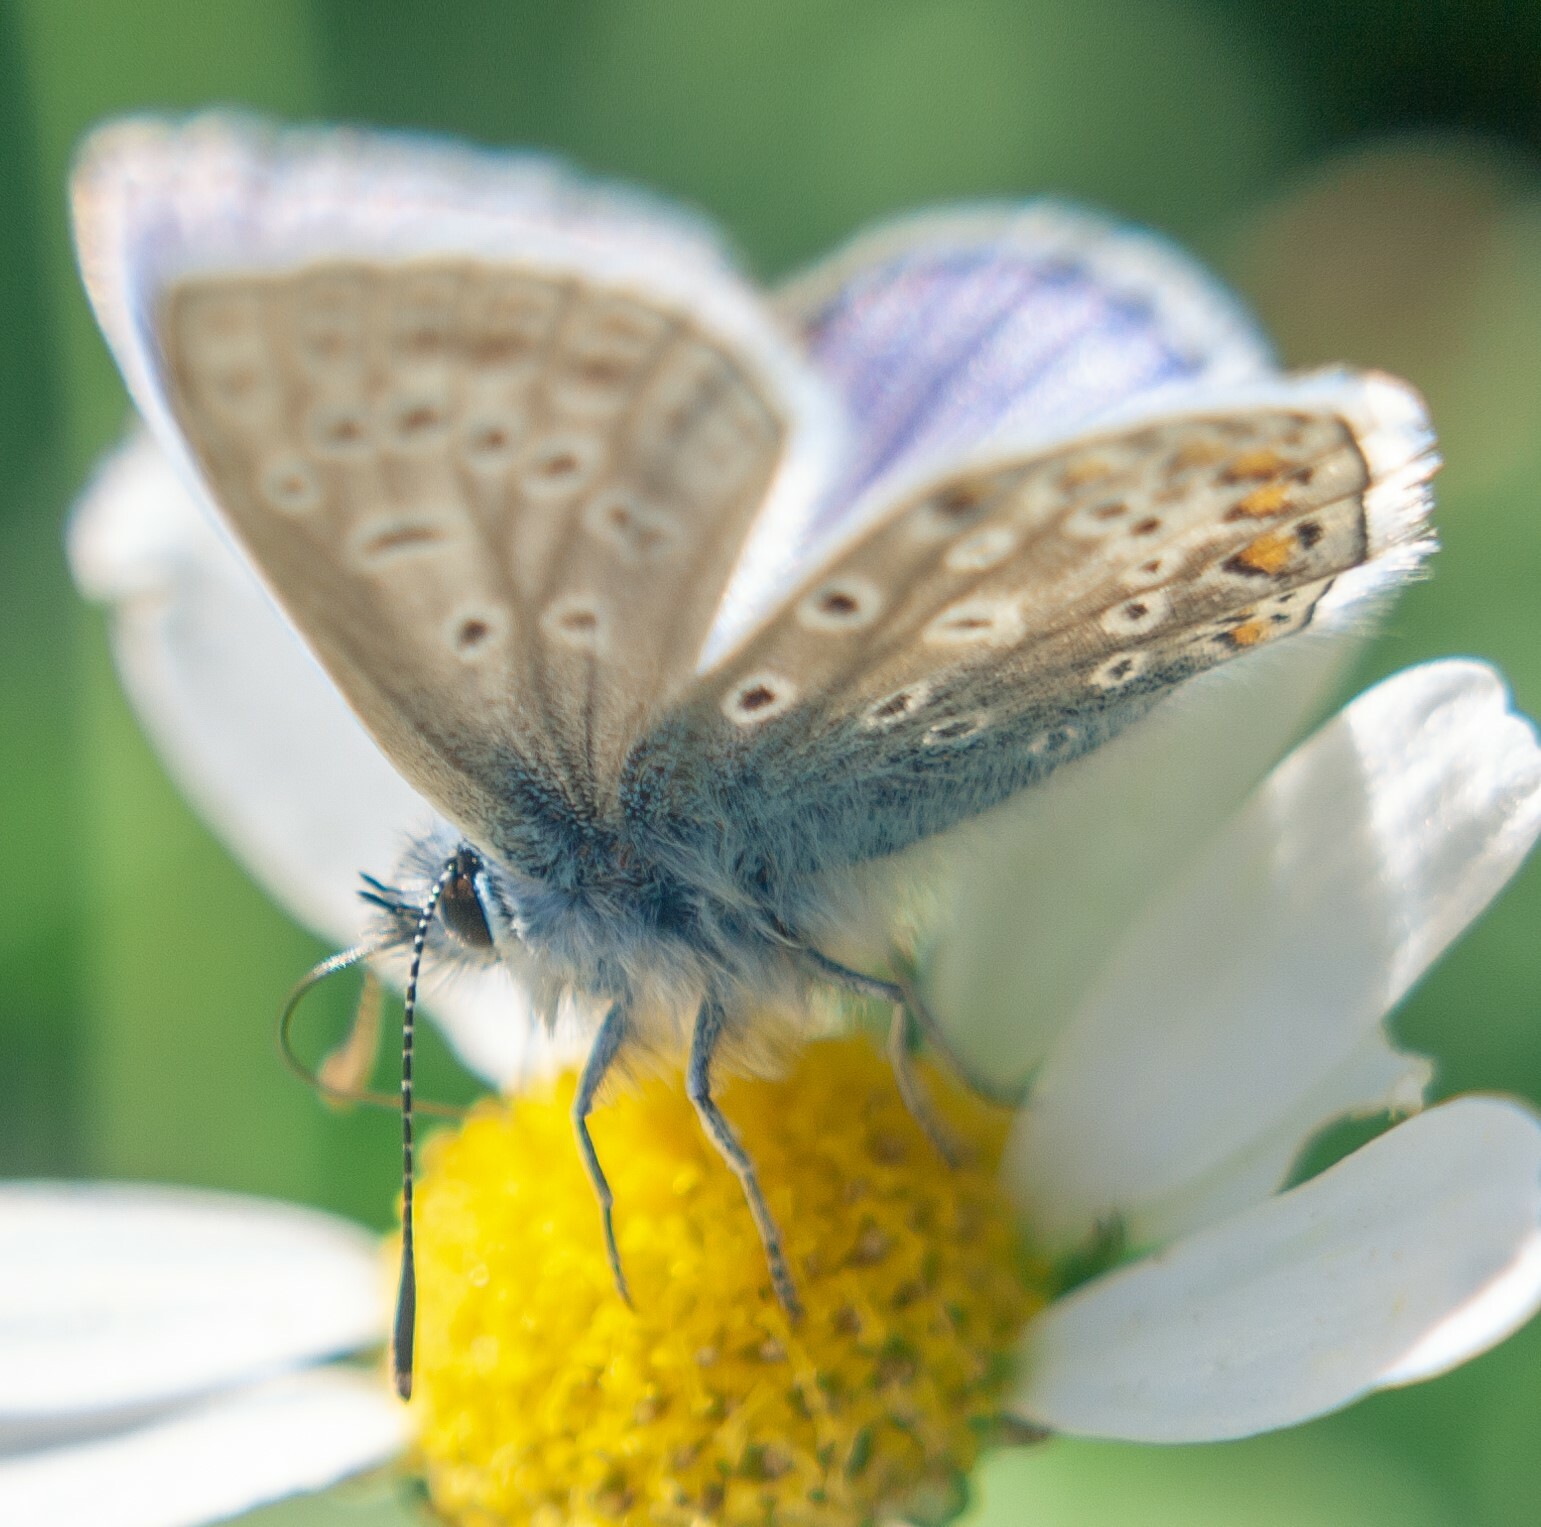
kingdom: Animalia
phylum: Arthropoda
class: Insecta
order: Lepidoptera
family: Lycaenidae
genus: Polyommatus
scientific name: Polyommatus icarus
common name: Common blue
